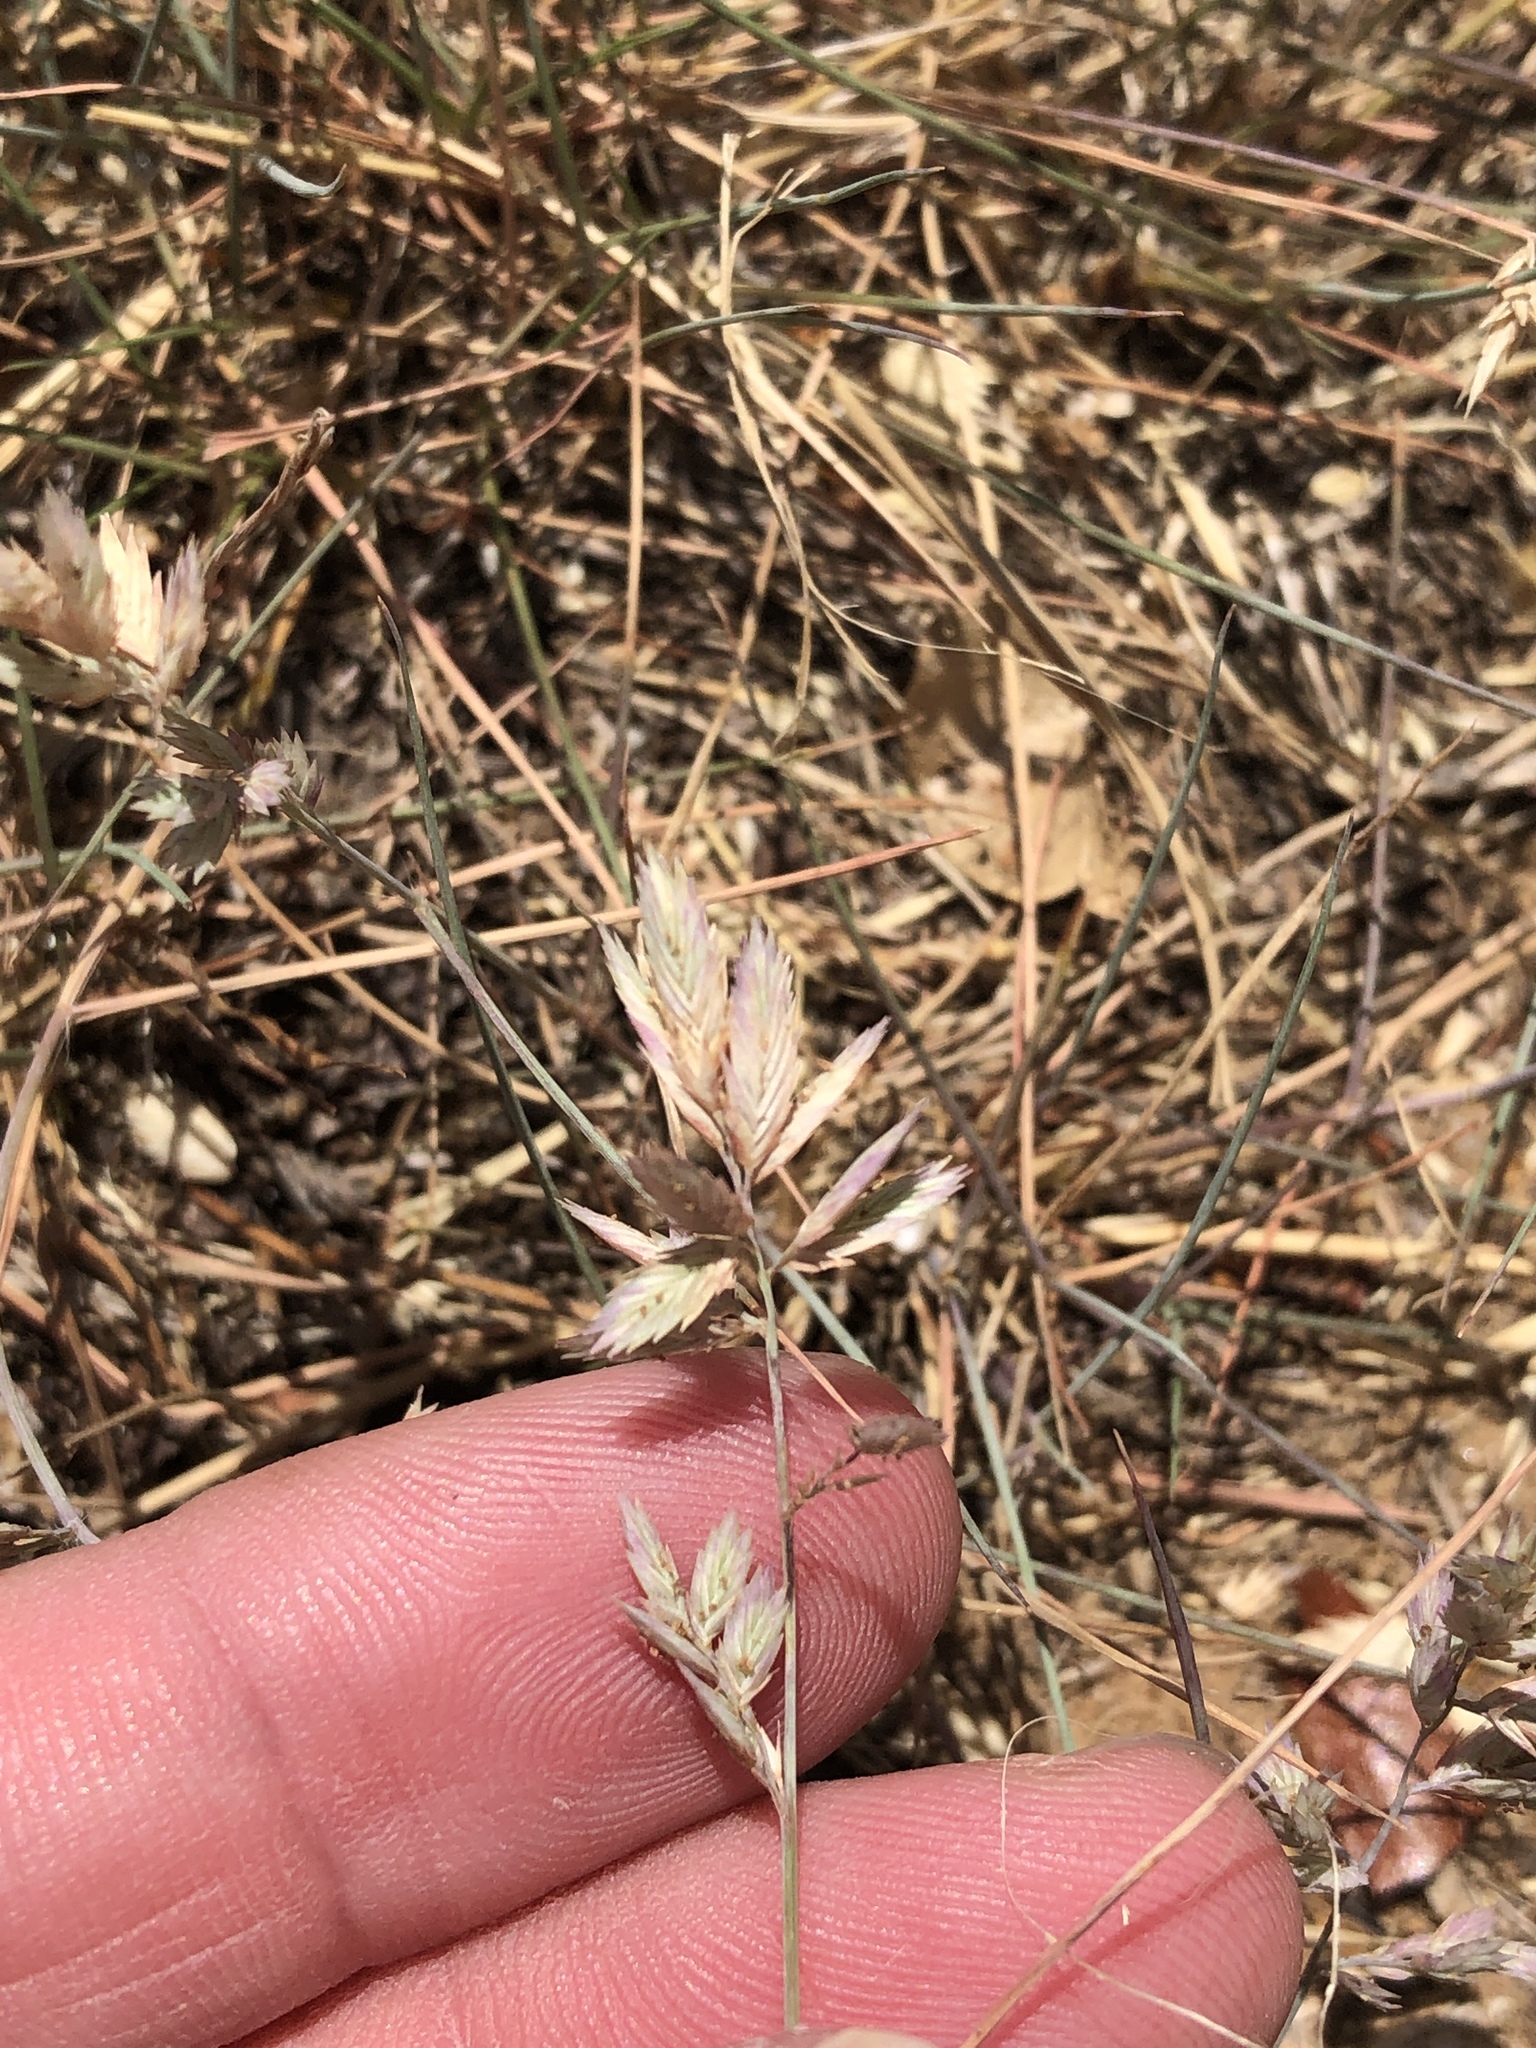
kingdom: Plantae
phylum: Tracheophyta
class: Liliopsida
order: Poales
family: Poaceae
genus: Eragrostis
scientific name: Eragrostis secundiflora
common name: Red love grass
